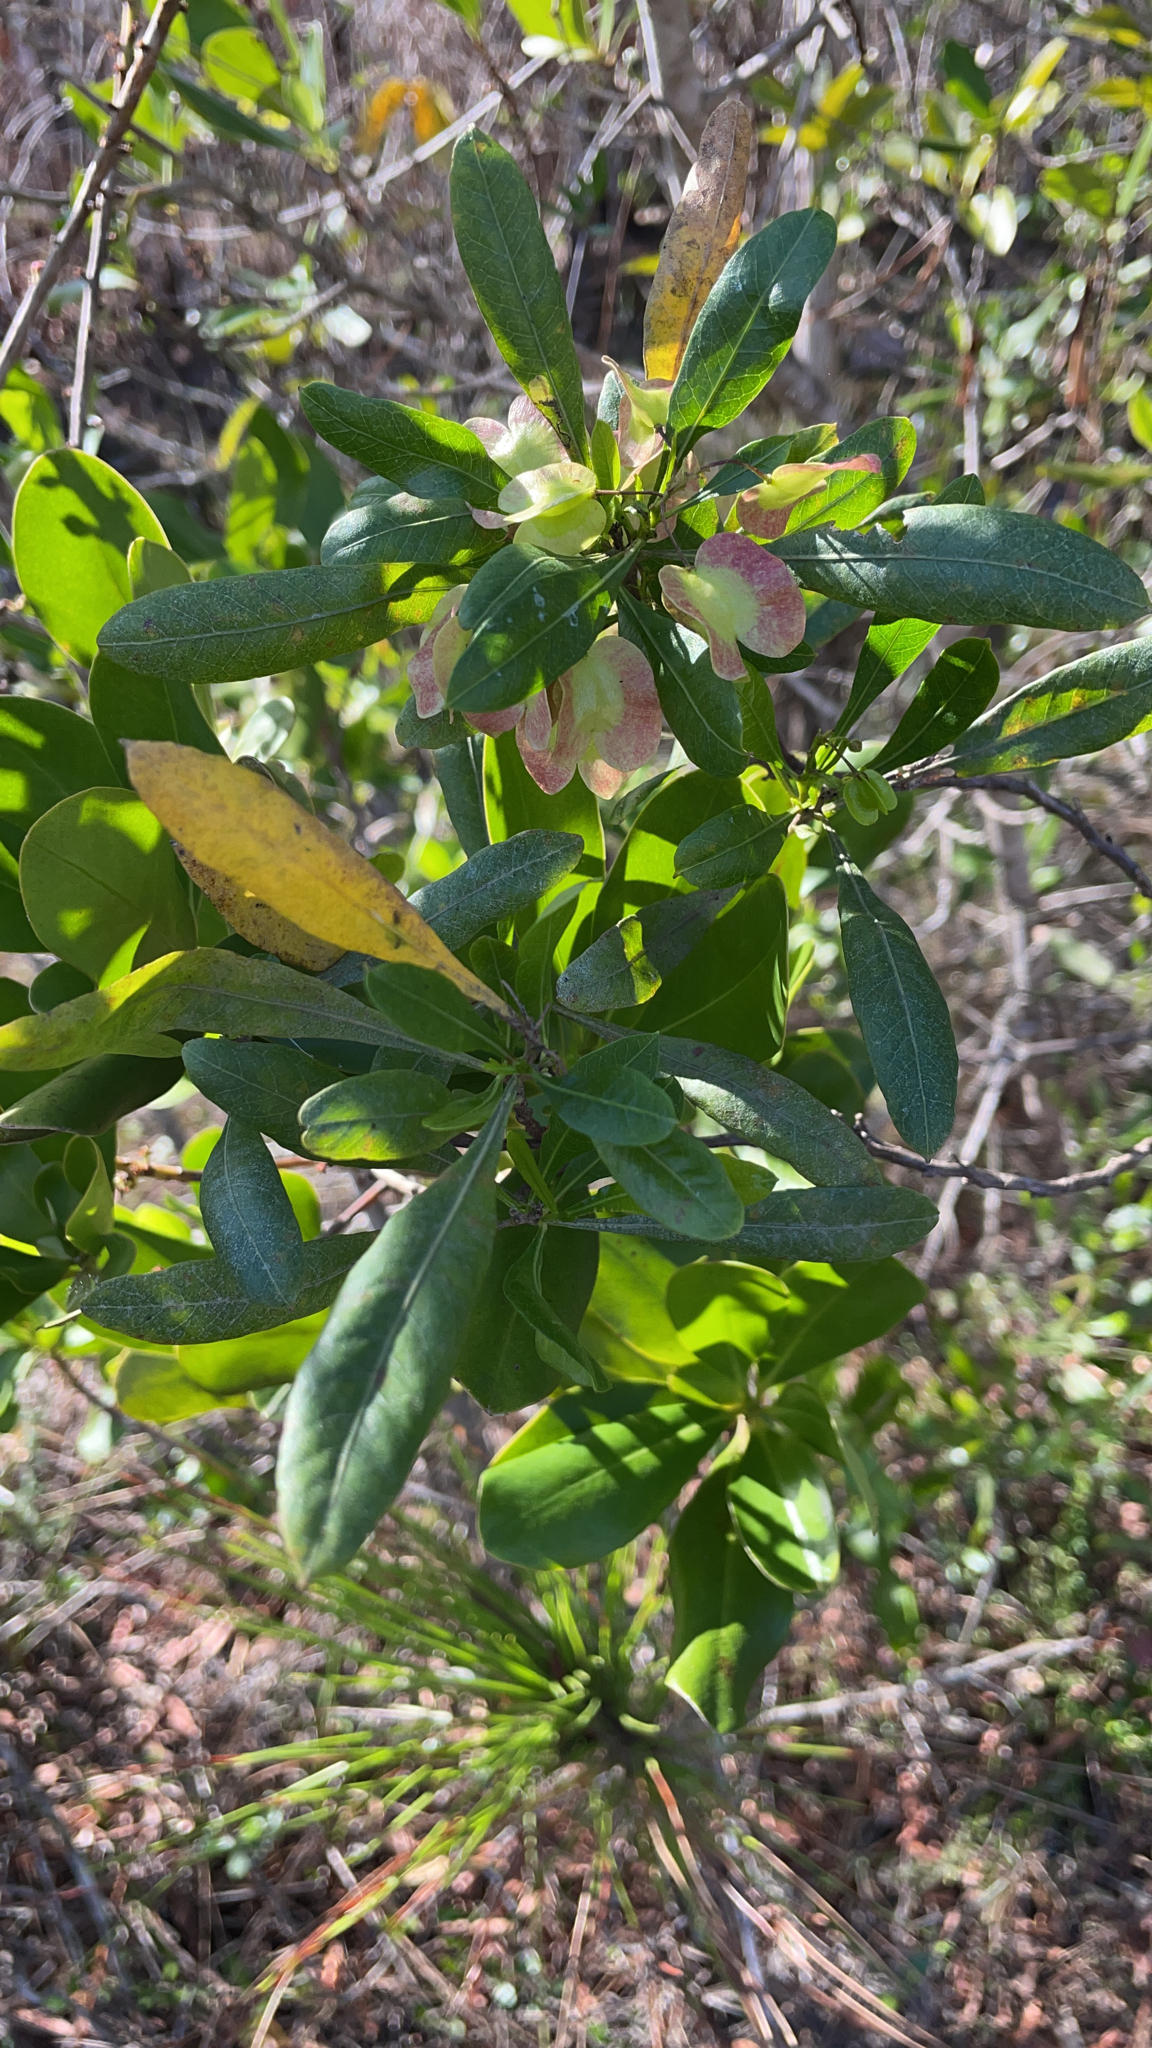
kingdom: Plantae
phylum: Tracheophyta
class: Magnoliopsida
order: Sapindales
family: Sapindaceae
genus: Dodonaea
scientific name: Dodonaea viscosa
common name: Hopbush
